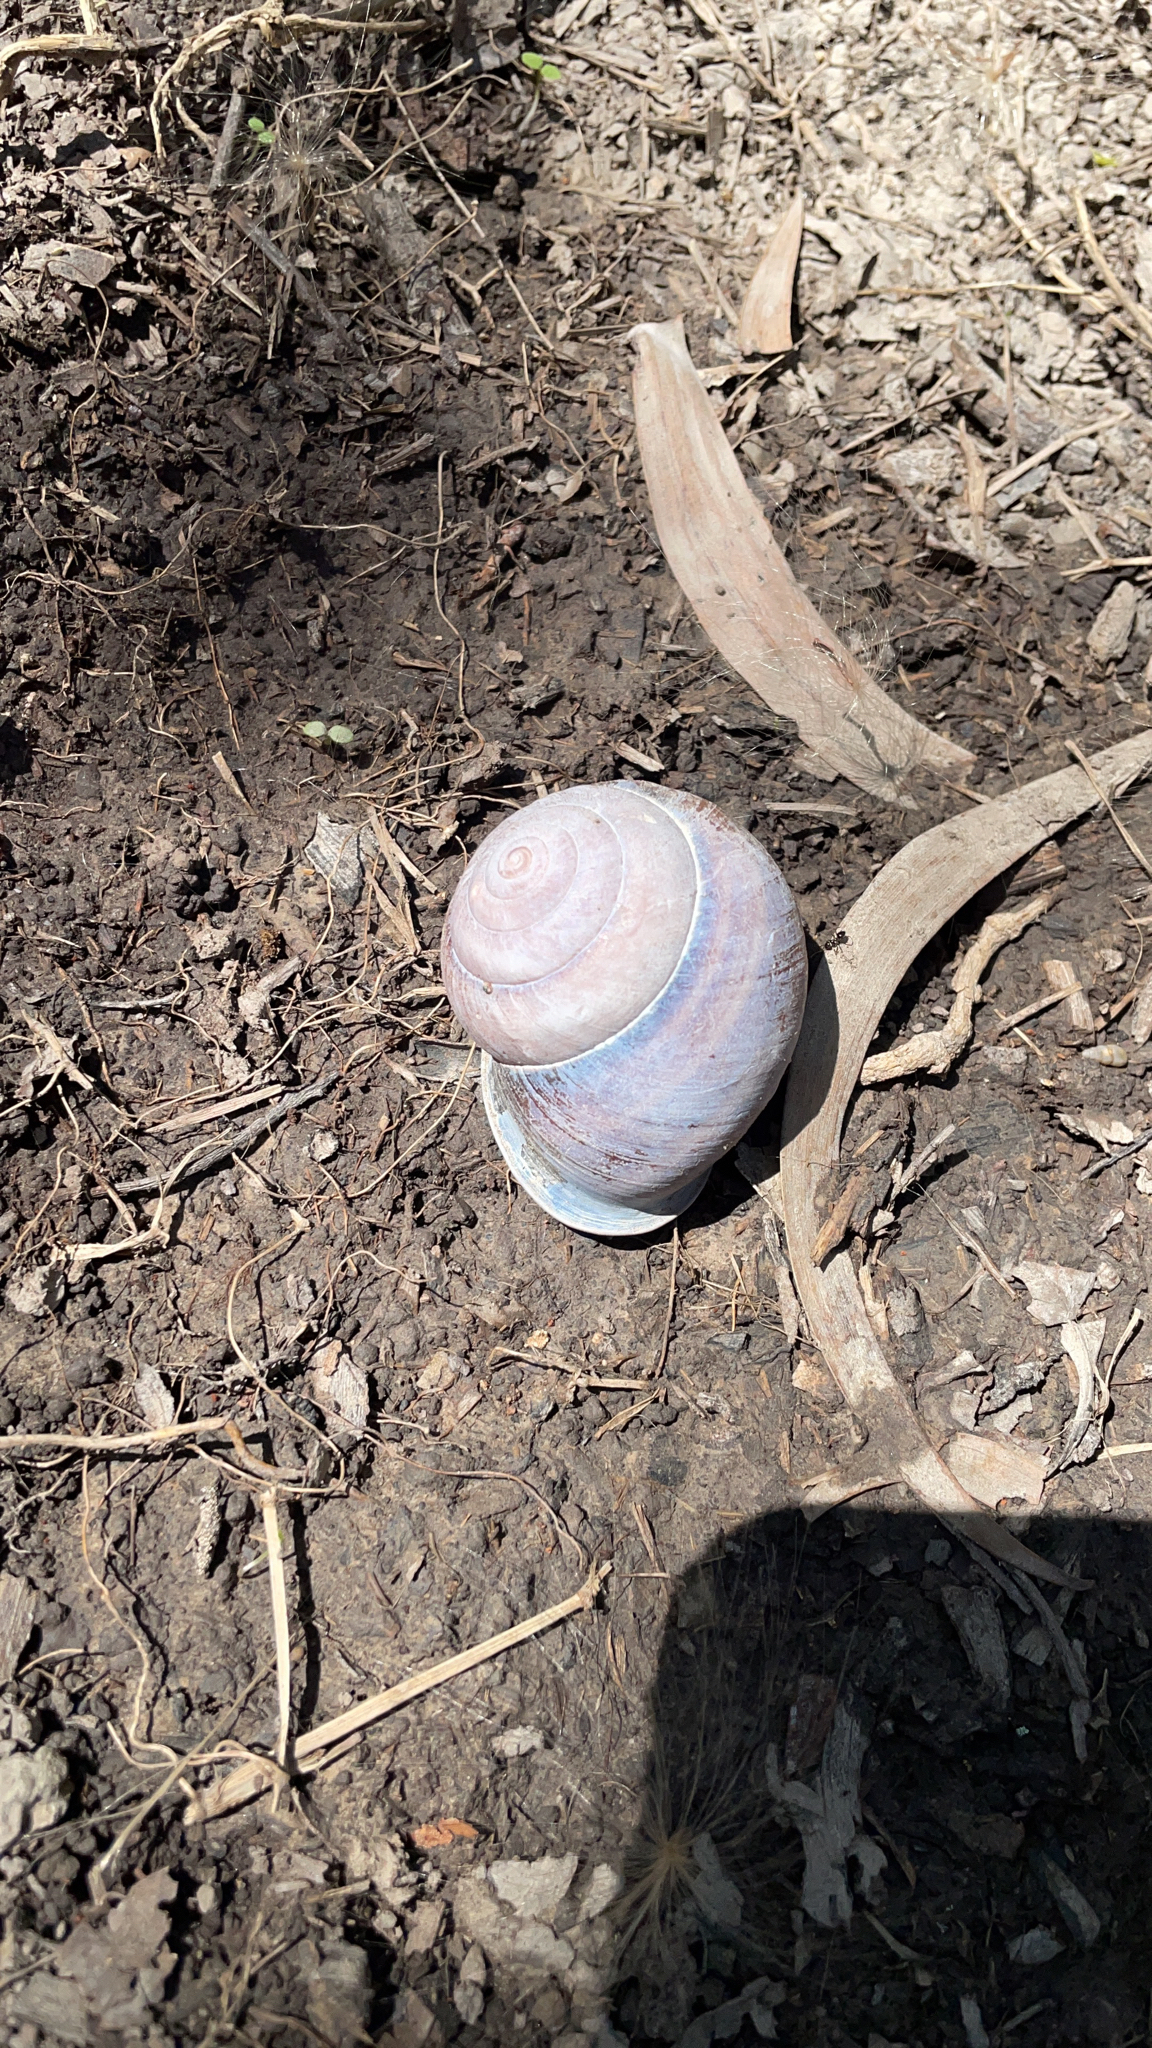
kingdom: Animalia
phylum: Mollusca
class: Gastropoda
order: Stylommatophora
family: Camaenidae
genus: Sphaerospira
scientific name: Sphaerospira fraseri
